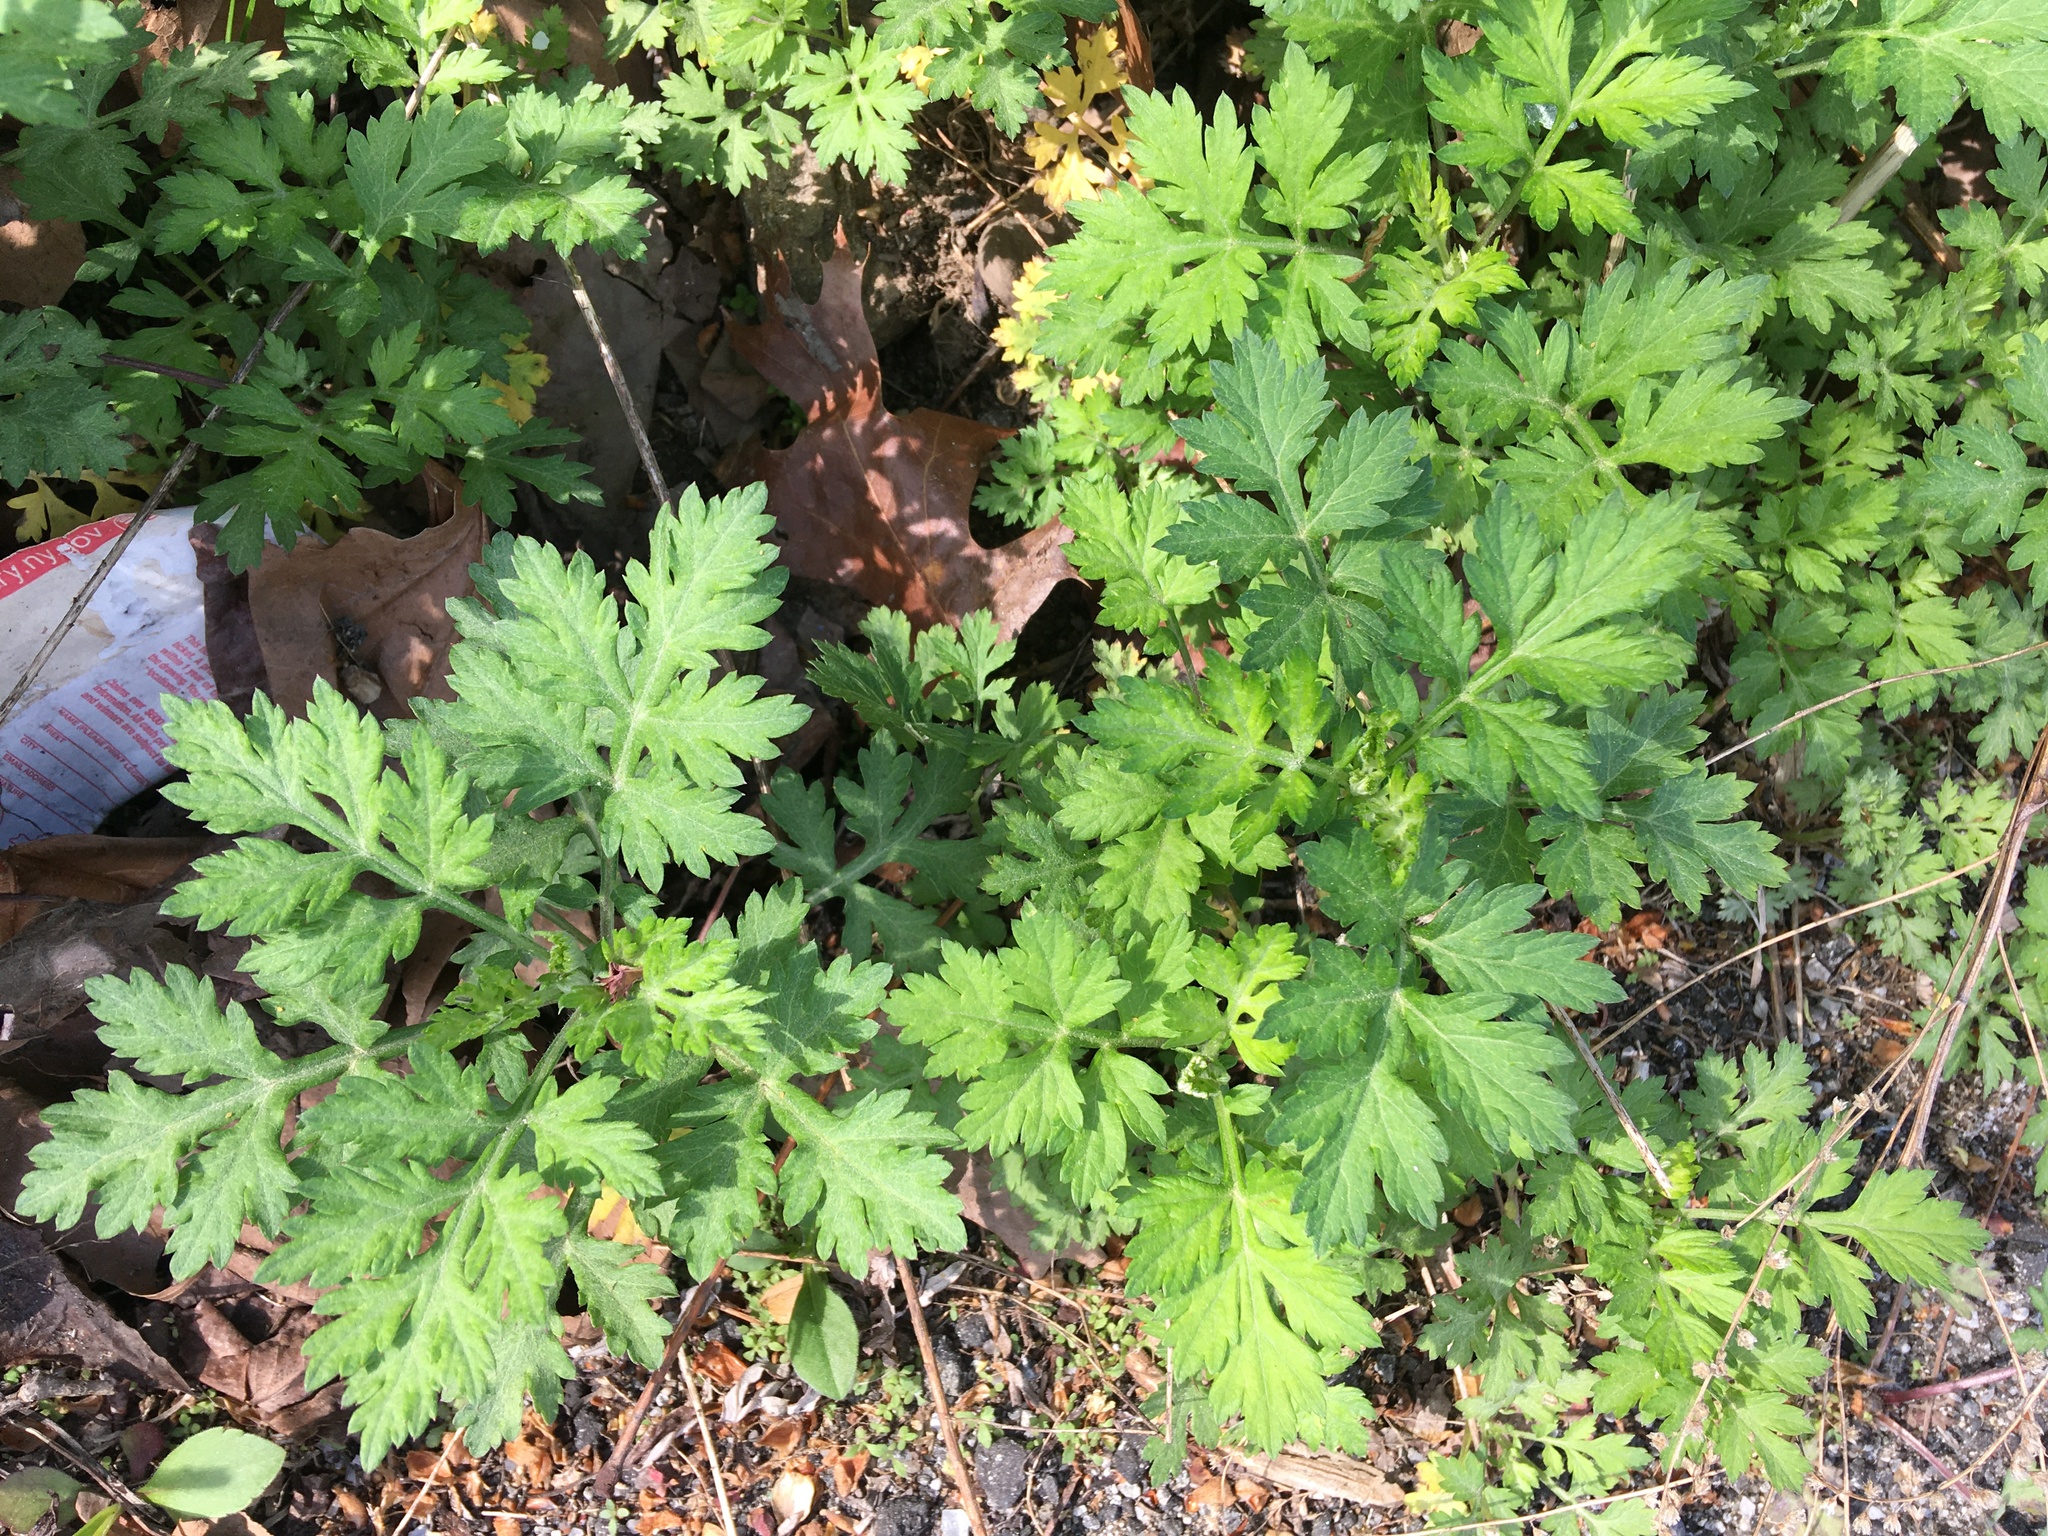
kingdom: Plantae
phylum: Tracheophyta
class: Magnoliopsida
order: Asterales
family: Asteraceae
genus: Artemisia
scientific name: Artemisia vulgaris
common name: Mugwort
